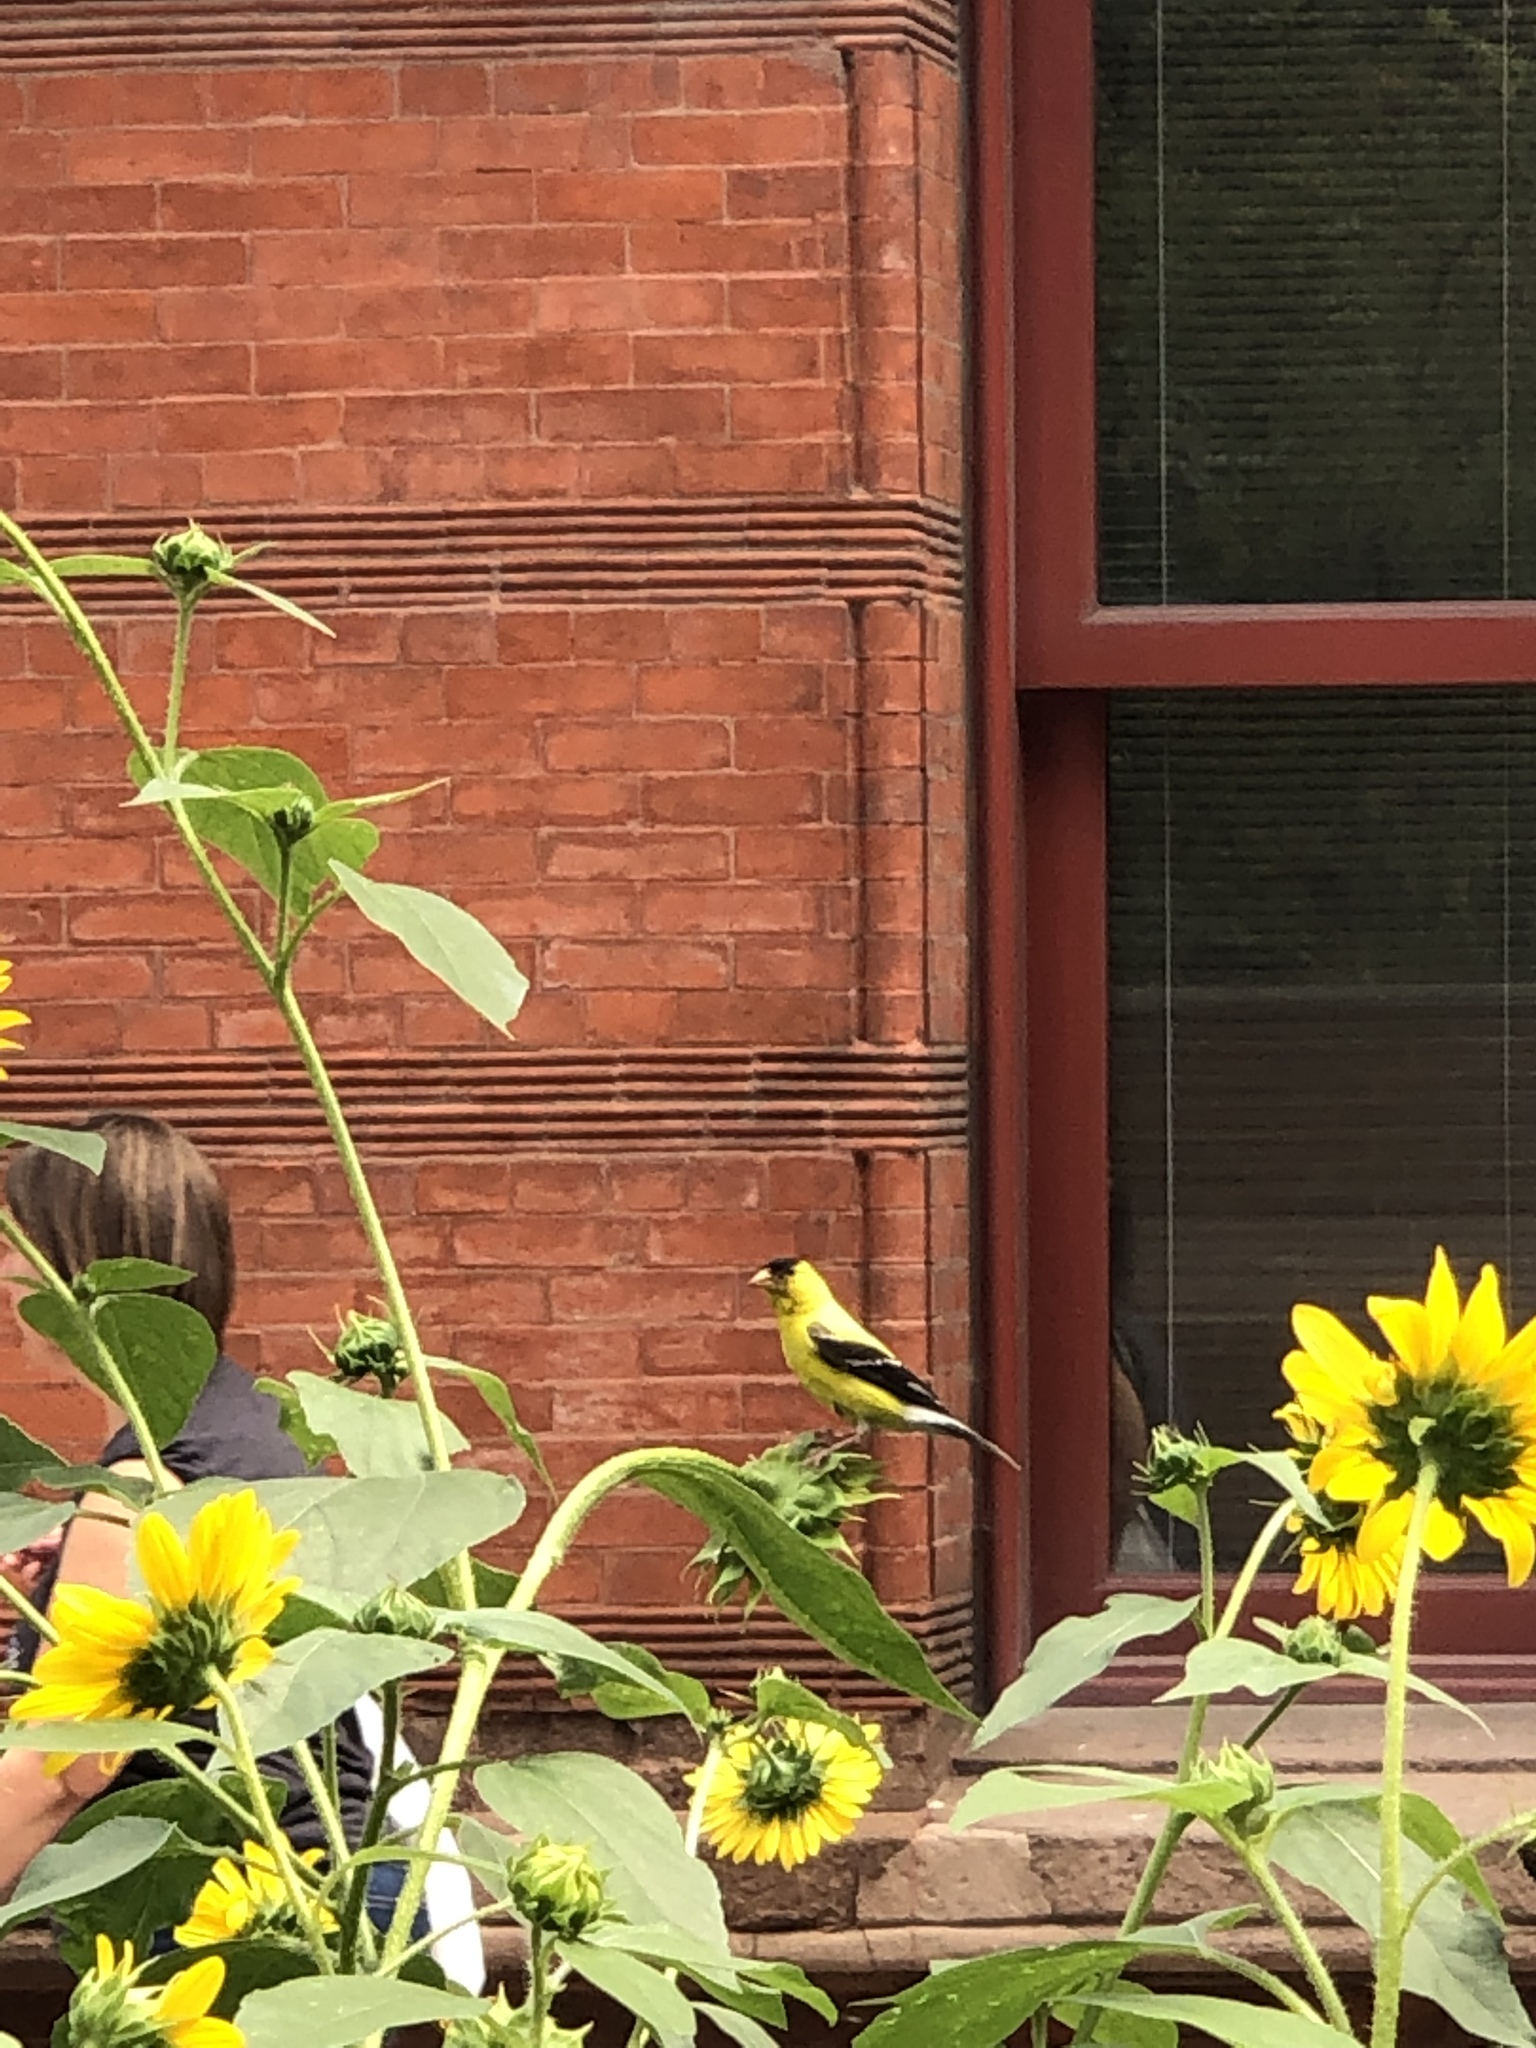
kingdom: Animalia
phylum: Chordata
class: Aves
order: Passeriformes
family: Fringillidae
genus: Spinus
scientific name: Spinus tristis
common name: American goldfinch
